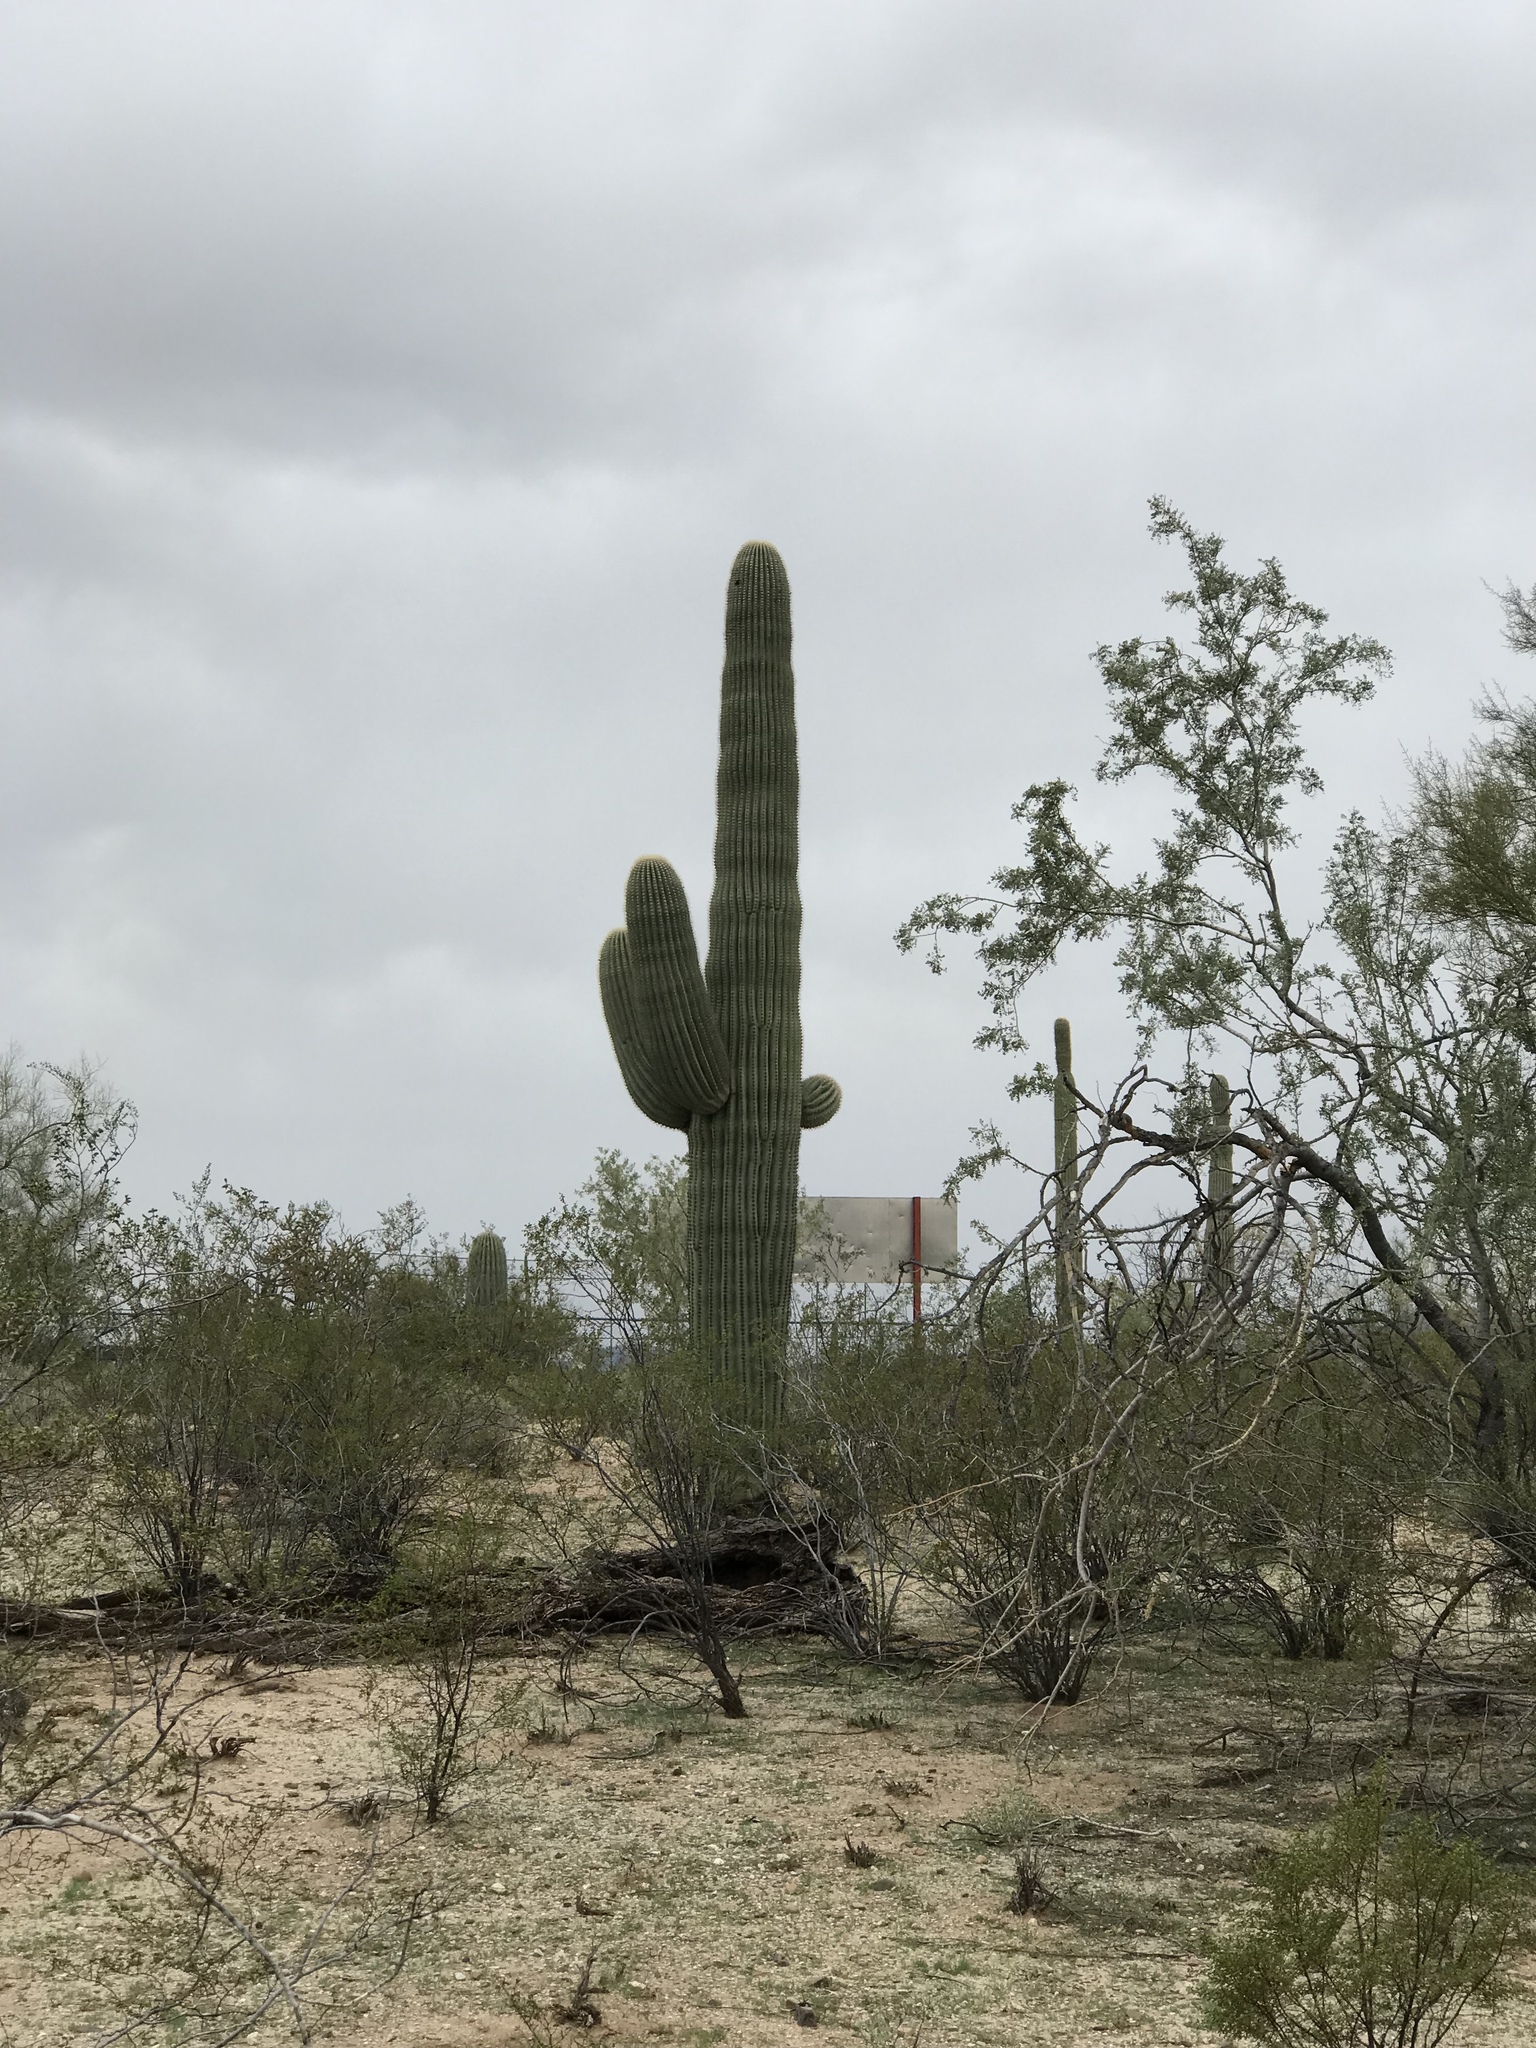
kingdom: Plantae
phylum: Tracheophyta
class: Magnoliopsida
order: Caryophyllales
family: Cactaceae
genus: Carnegiea
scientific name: Carnegiea gigantea
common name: Saguaro
